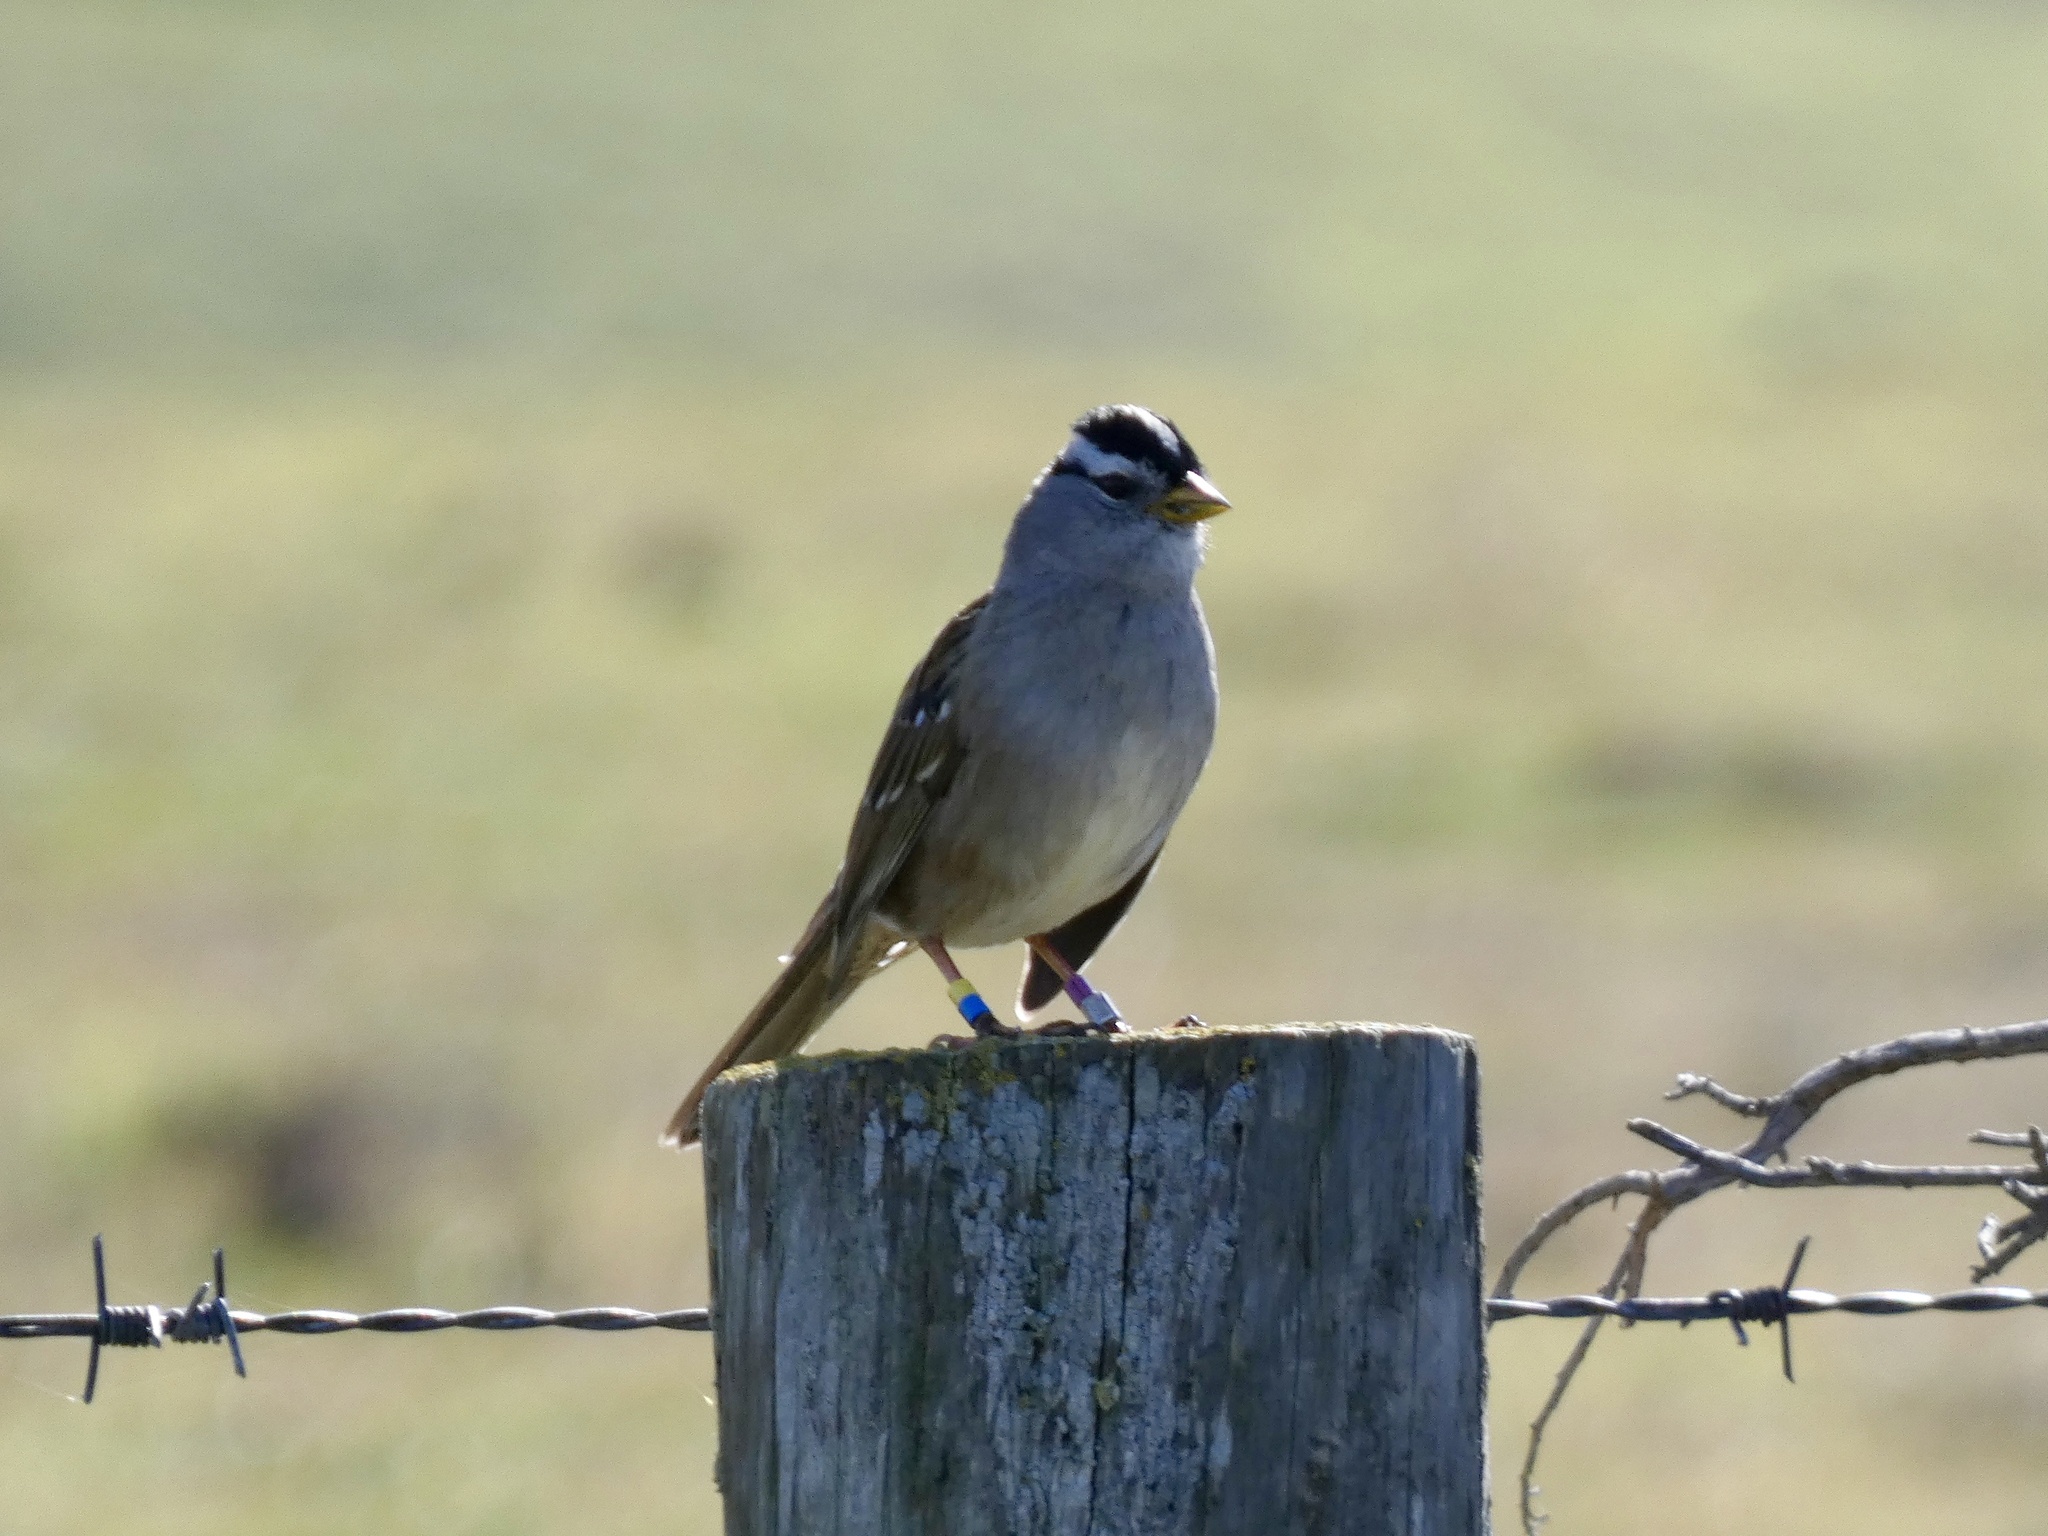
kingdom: Animalia
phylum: Chordata
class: Aves
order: Passeriformes
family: Passerellidae
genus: Zonotrichia
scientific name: Zonotrichia leucophrys
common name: White-crowned sparrow
